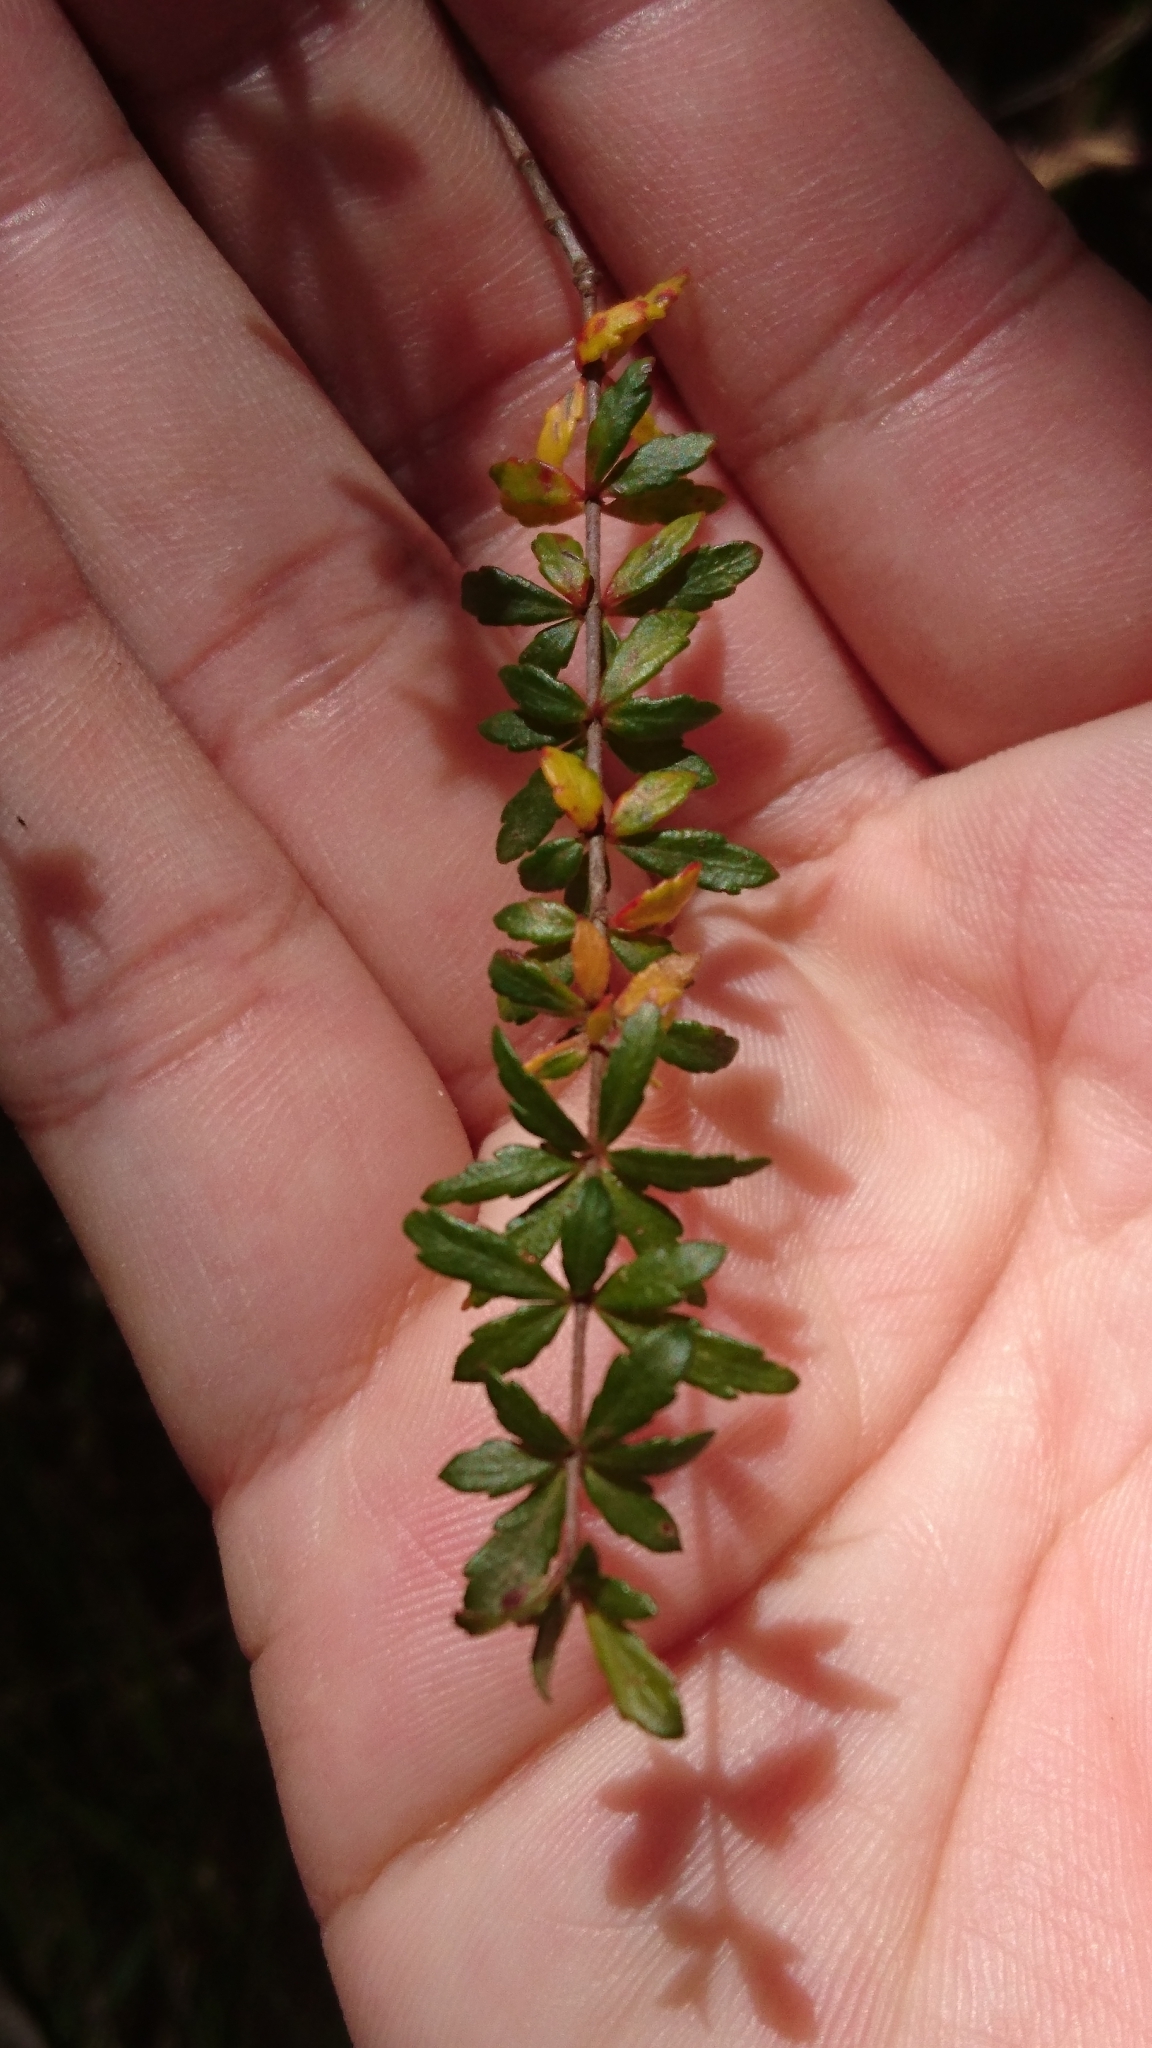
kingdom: Plantae
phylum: Tracheophyta
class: Magnoliopsida
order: Oxalidales
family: Cunoniaceae
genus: Bauera
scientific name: Bauera rubioides
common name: River-rose
